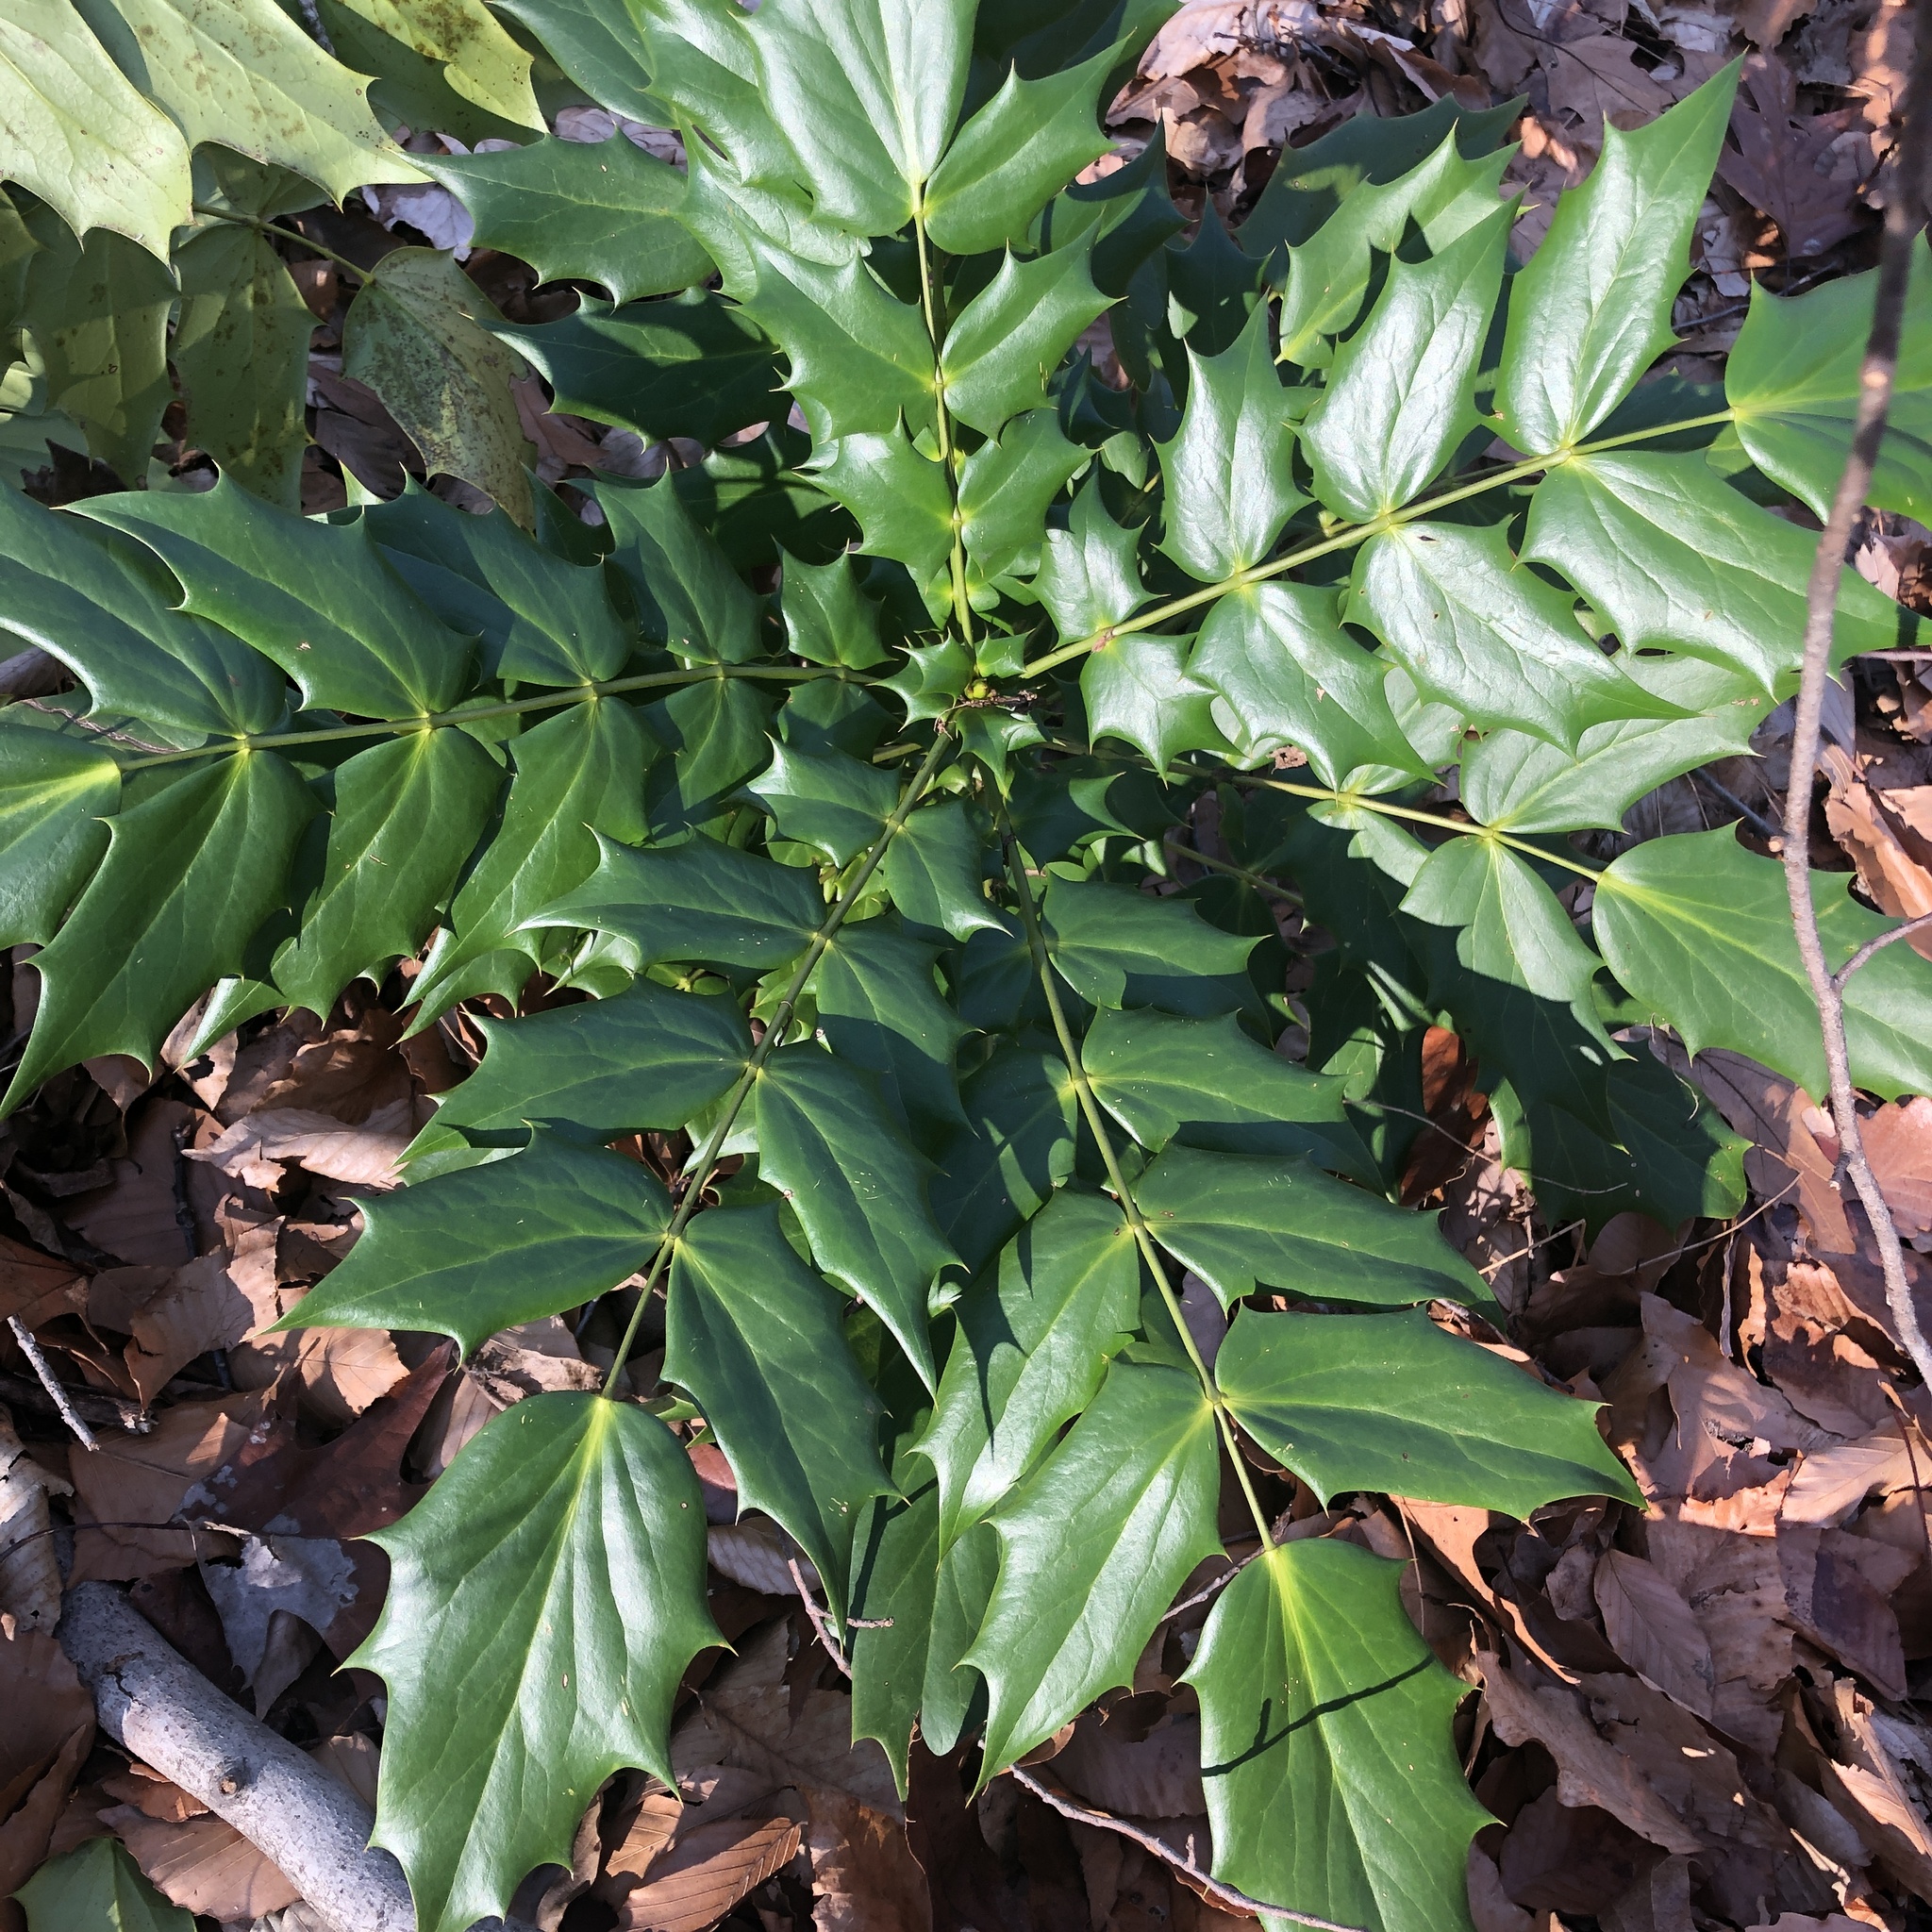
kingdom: Plantae
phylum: Tracheophyta
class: Magnoliopsida
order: Ranunculales
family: Berberidaceae
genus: Mahonia
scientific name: Mahonia bealei
